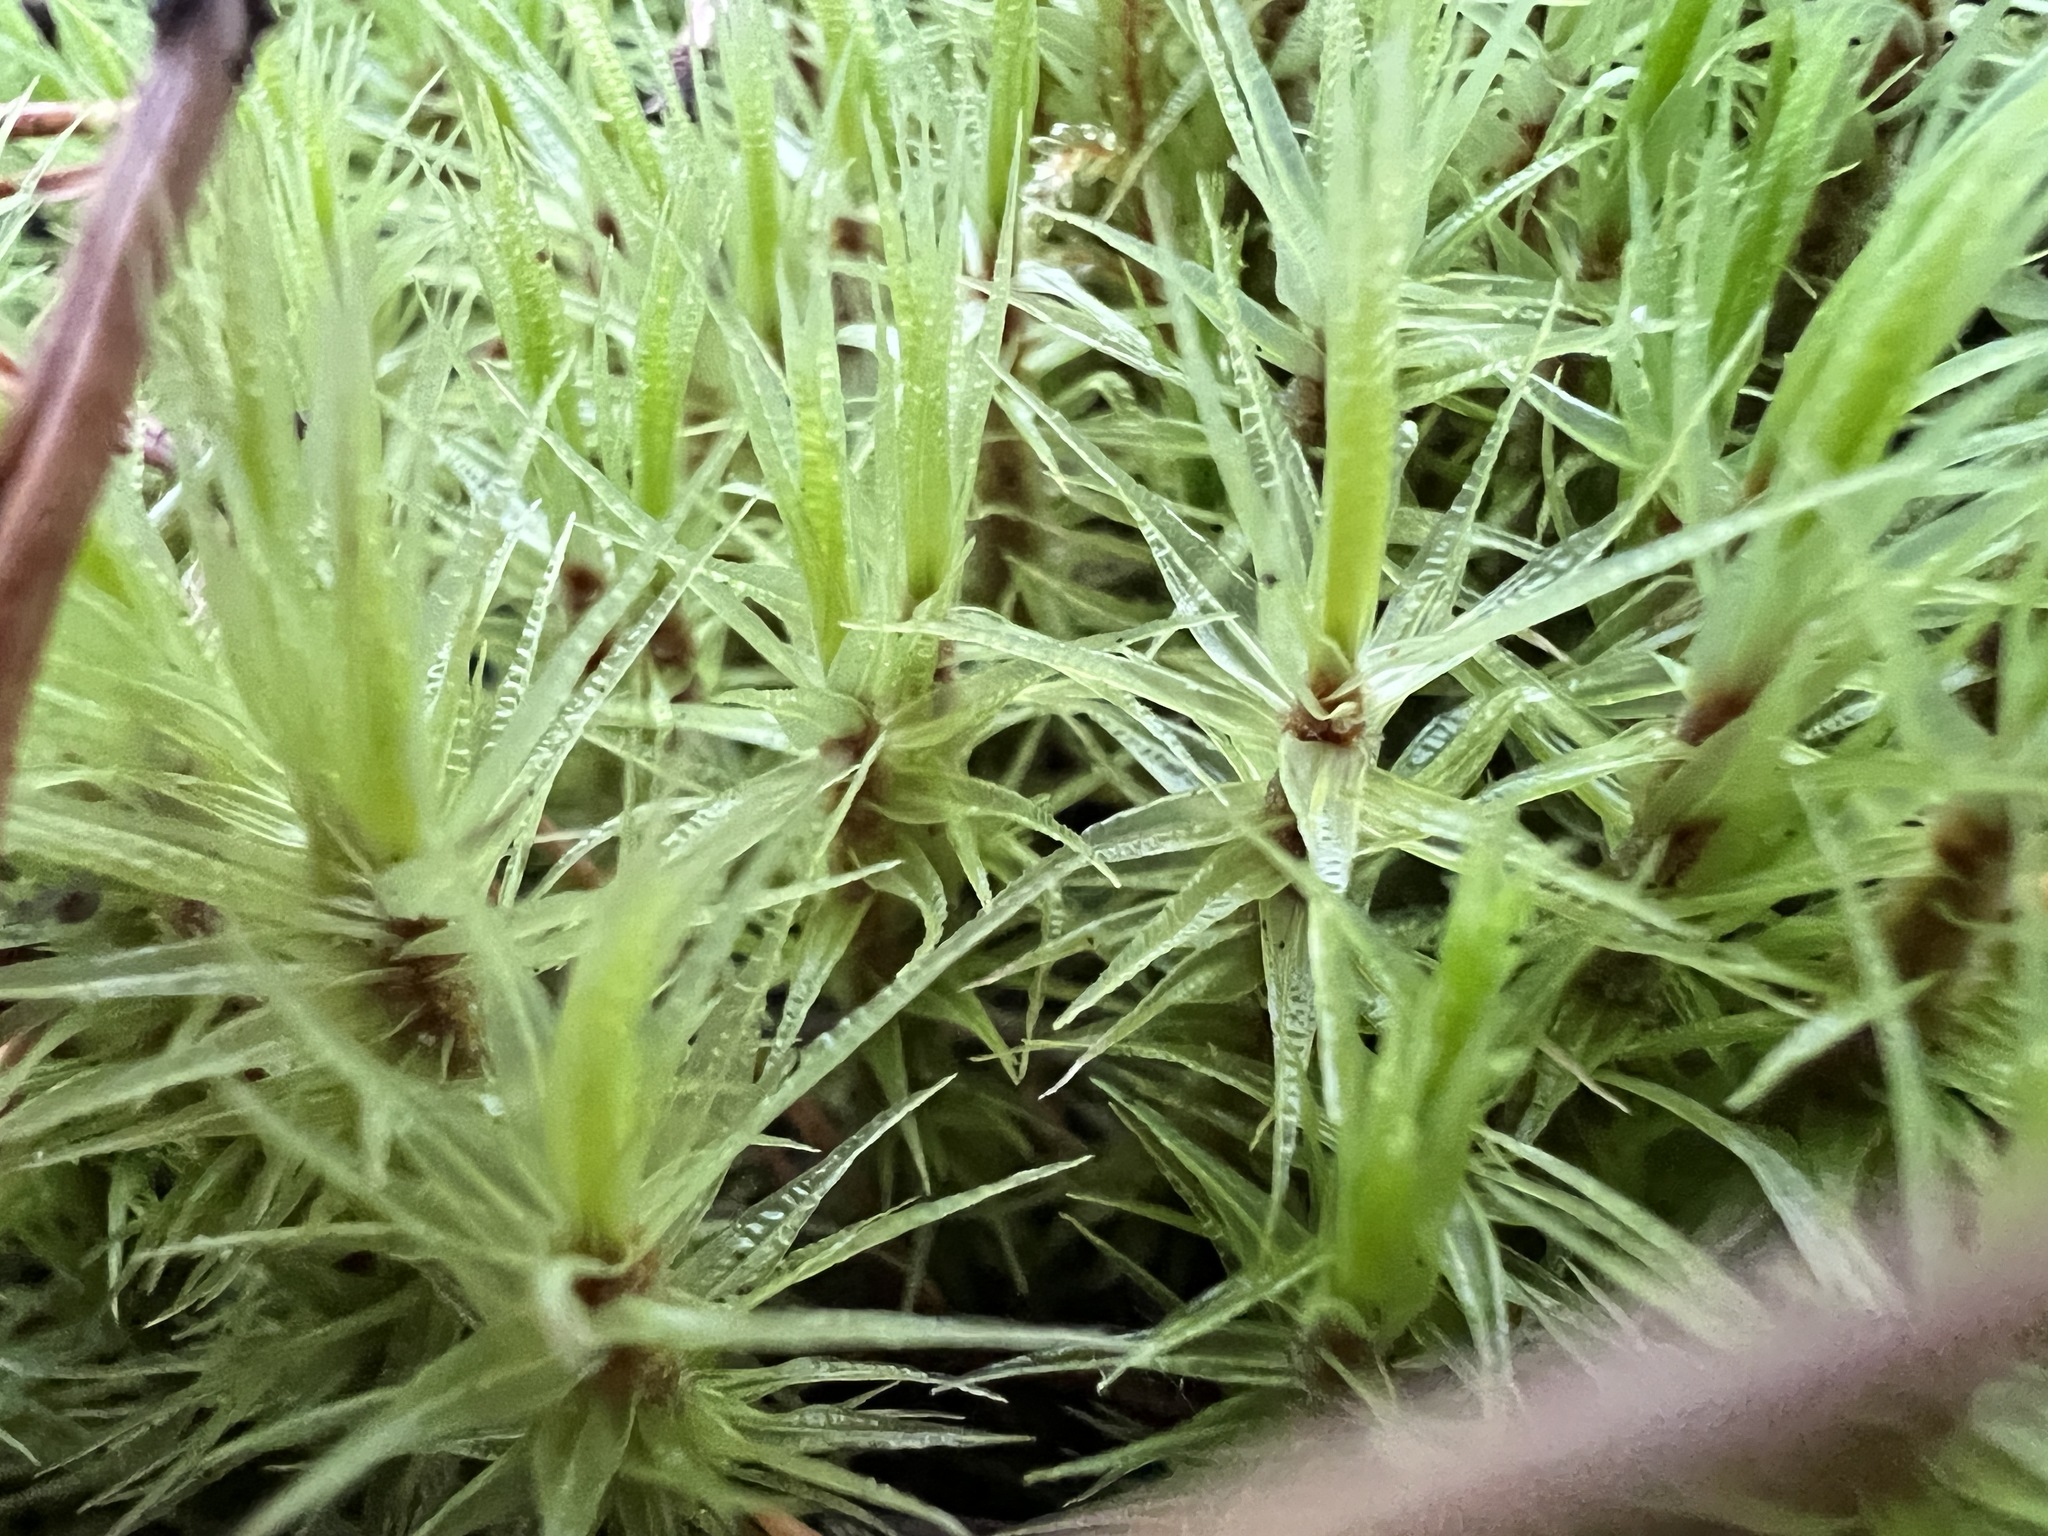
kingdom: Plantae
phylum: Bryophyta
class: Bryopsida
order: Dicranales
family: Dicranaceae
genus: Dicranum
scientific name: Dicranum polysetum
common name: Rugose fork-moss
